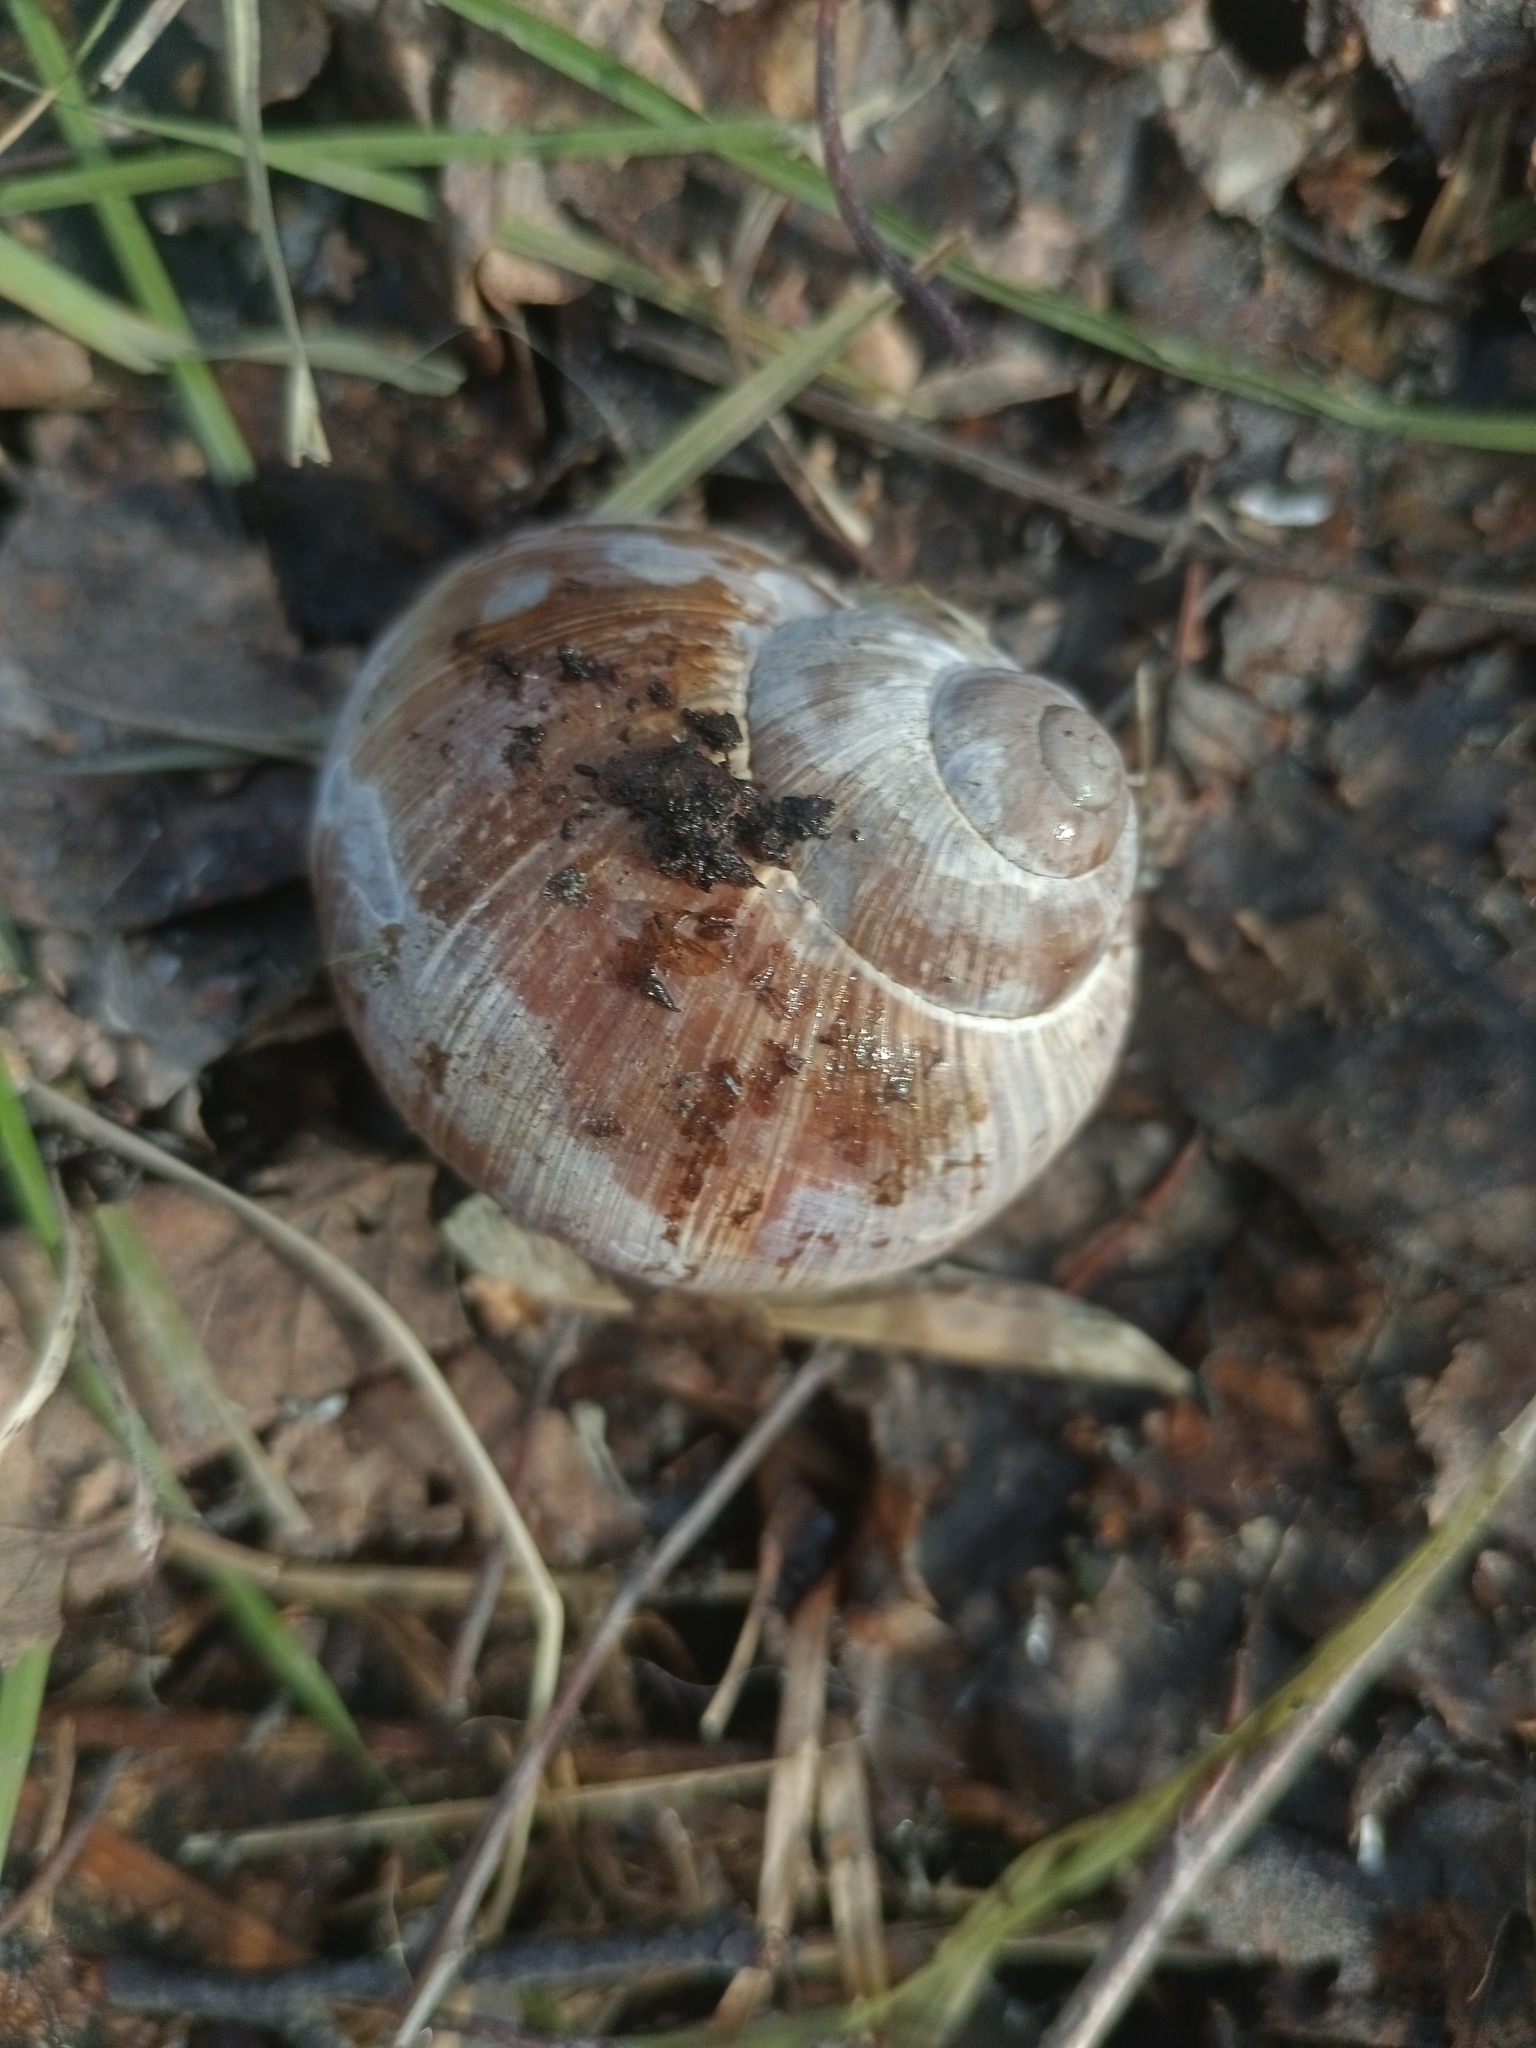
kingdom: Animalia
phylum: Mollusca
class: Gastropoda
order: Stylommatophora
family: Helicidae
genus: Helix
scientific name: Helix pomatia
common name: Roman snail
